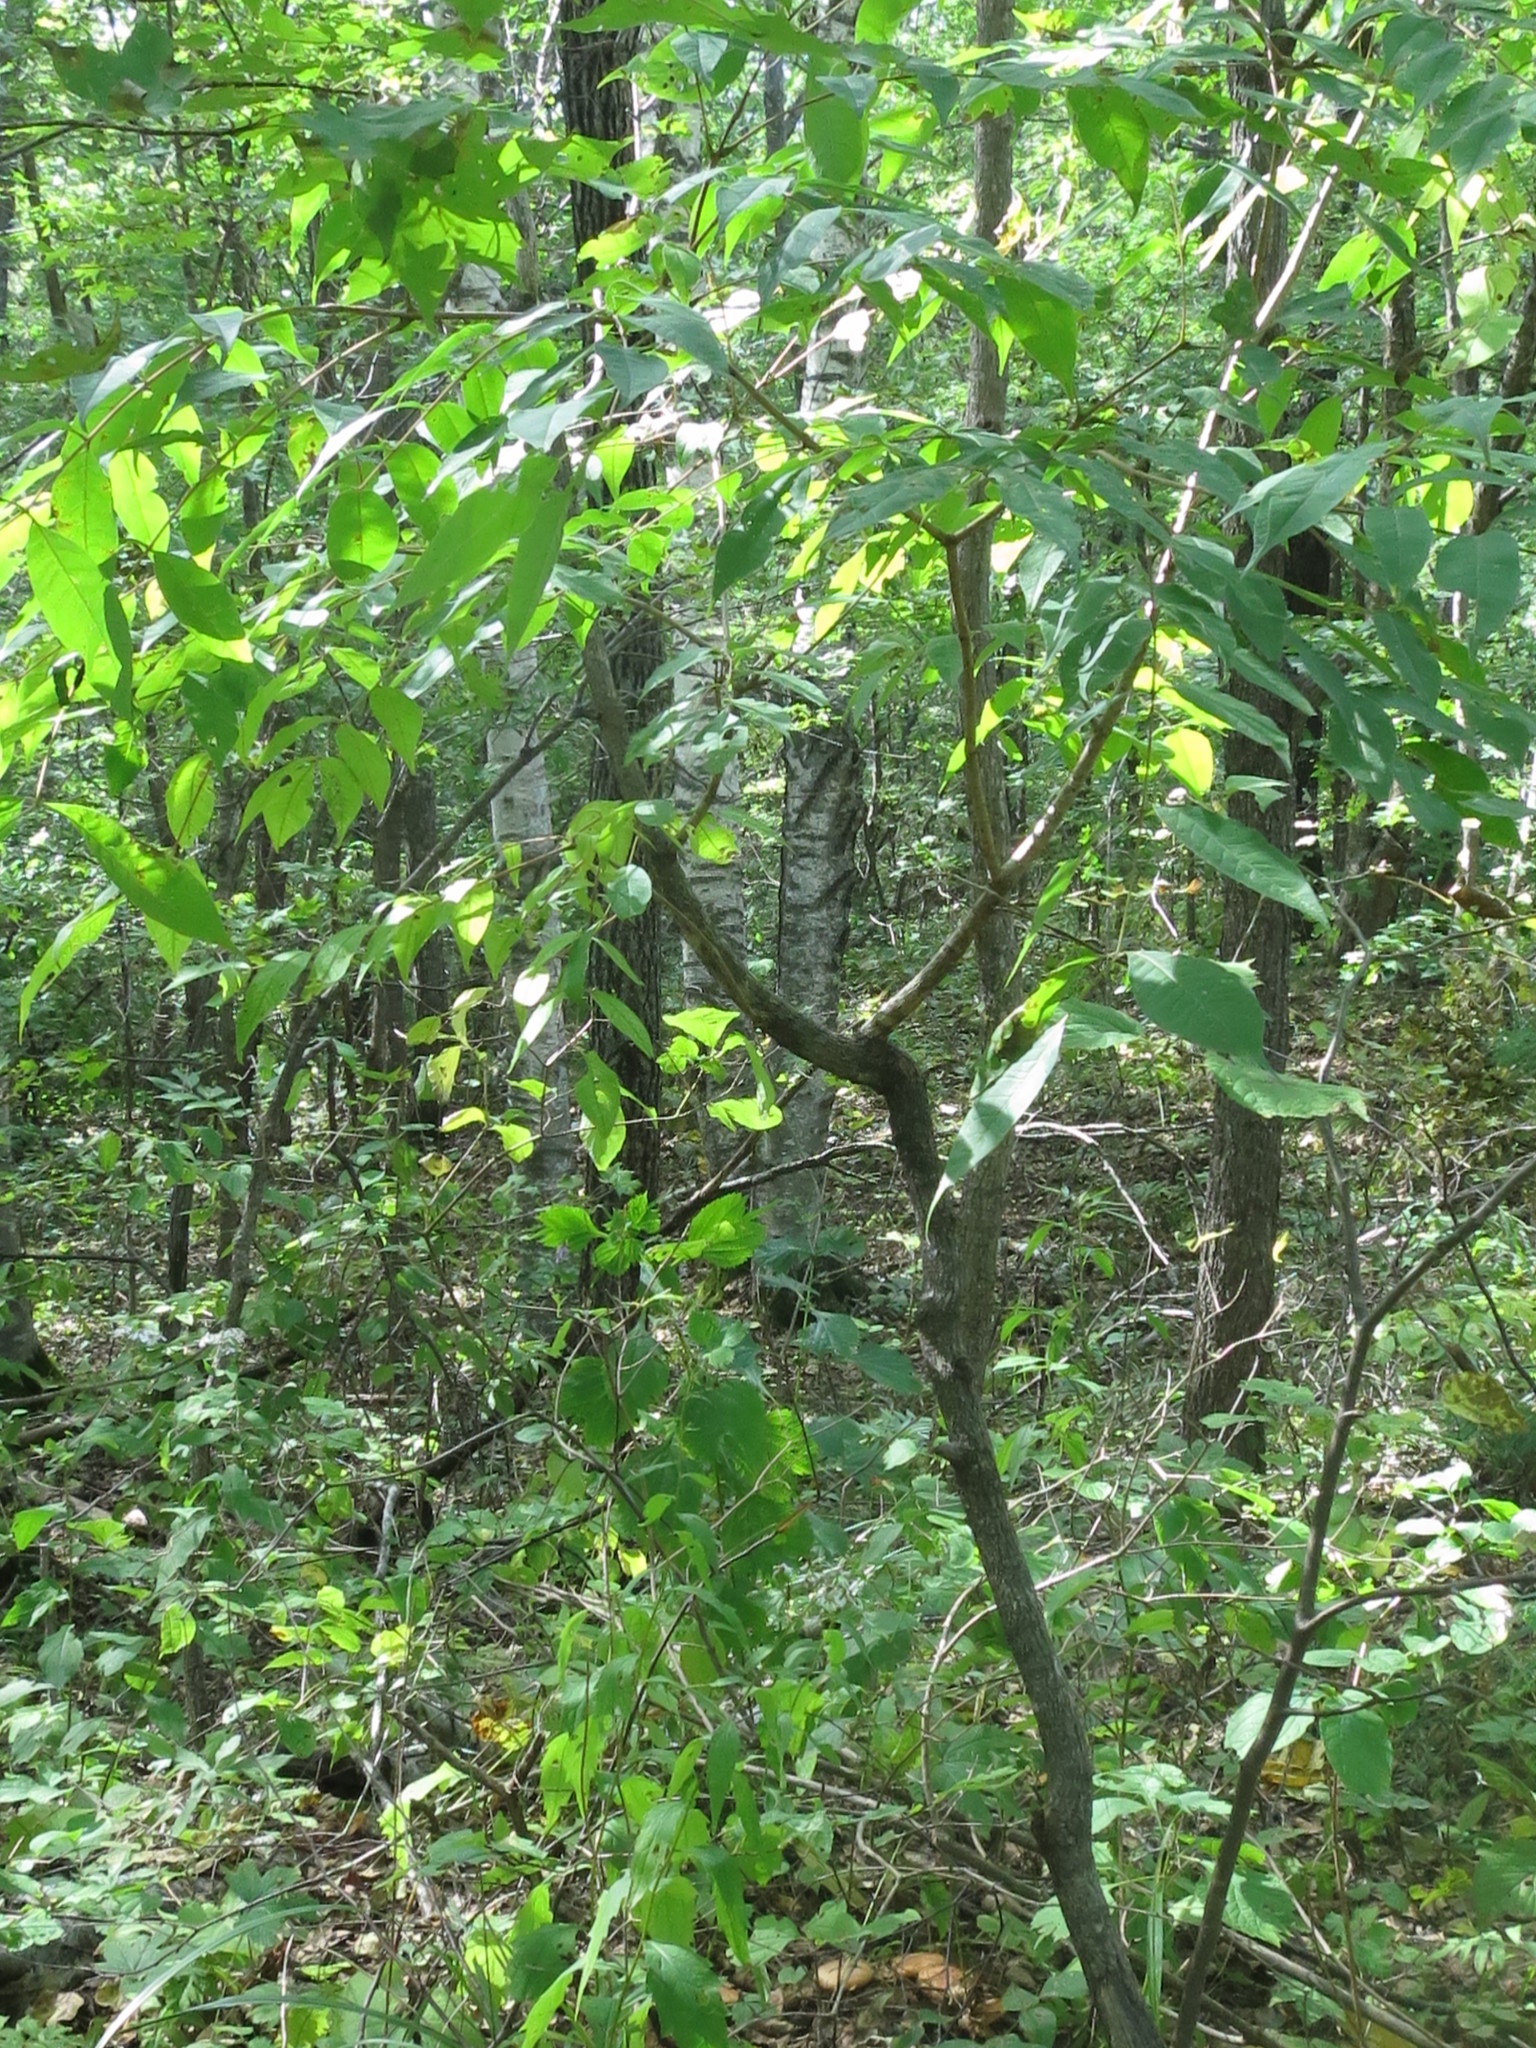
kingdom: Plantae
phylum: Tracheophyta
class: Magnoliopsida
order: Sapindales
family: Rutaceae
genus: Phellodendron
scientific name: Phellodendron amurense
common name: Amur corktree
